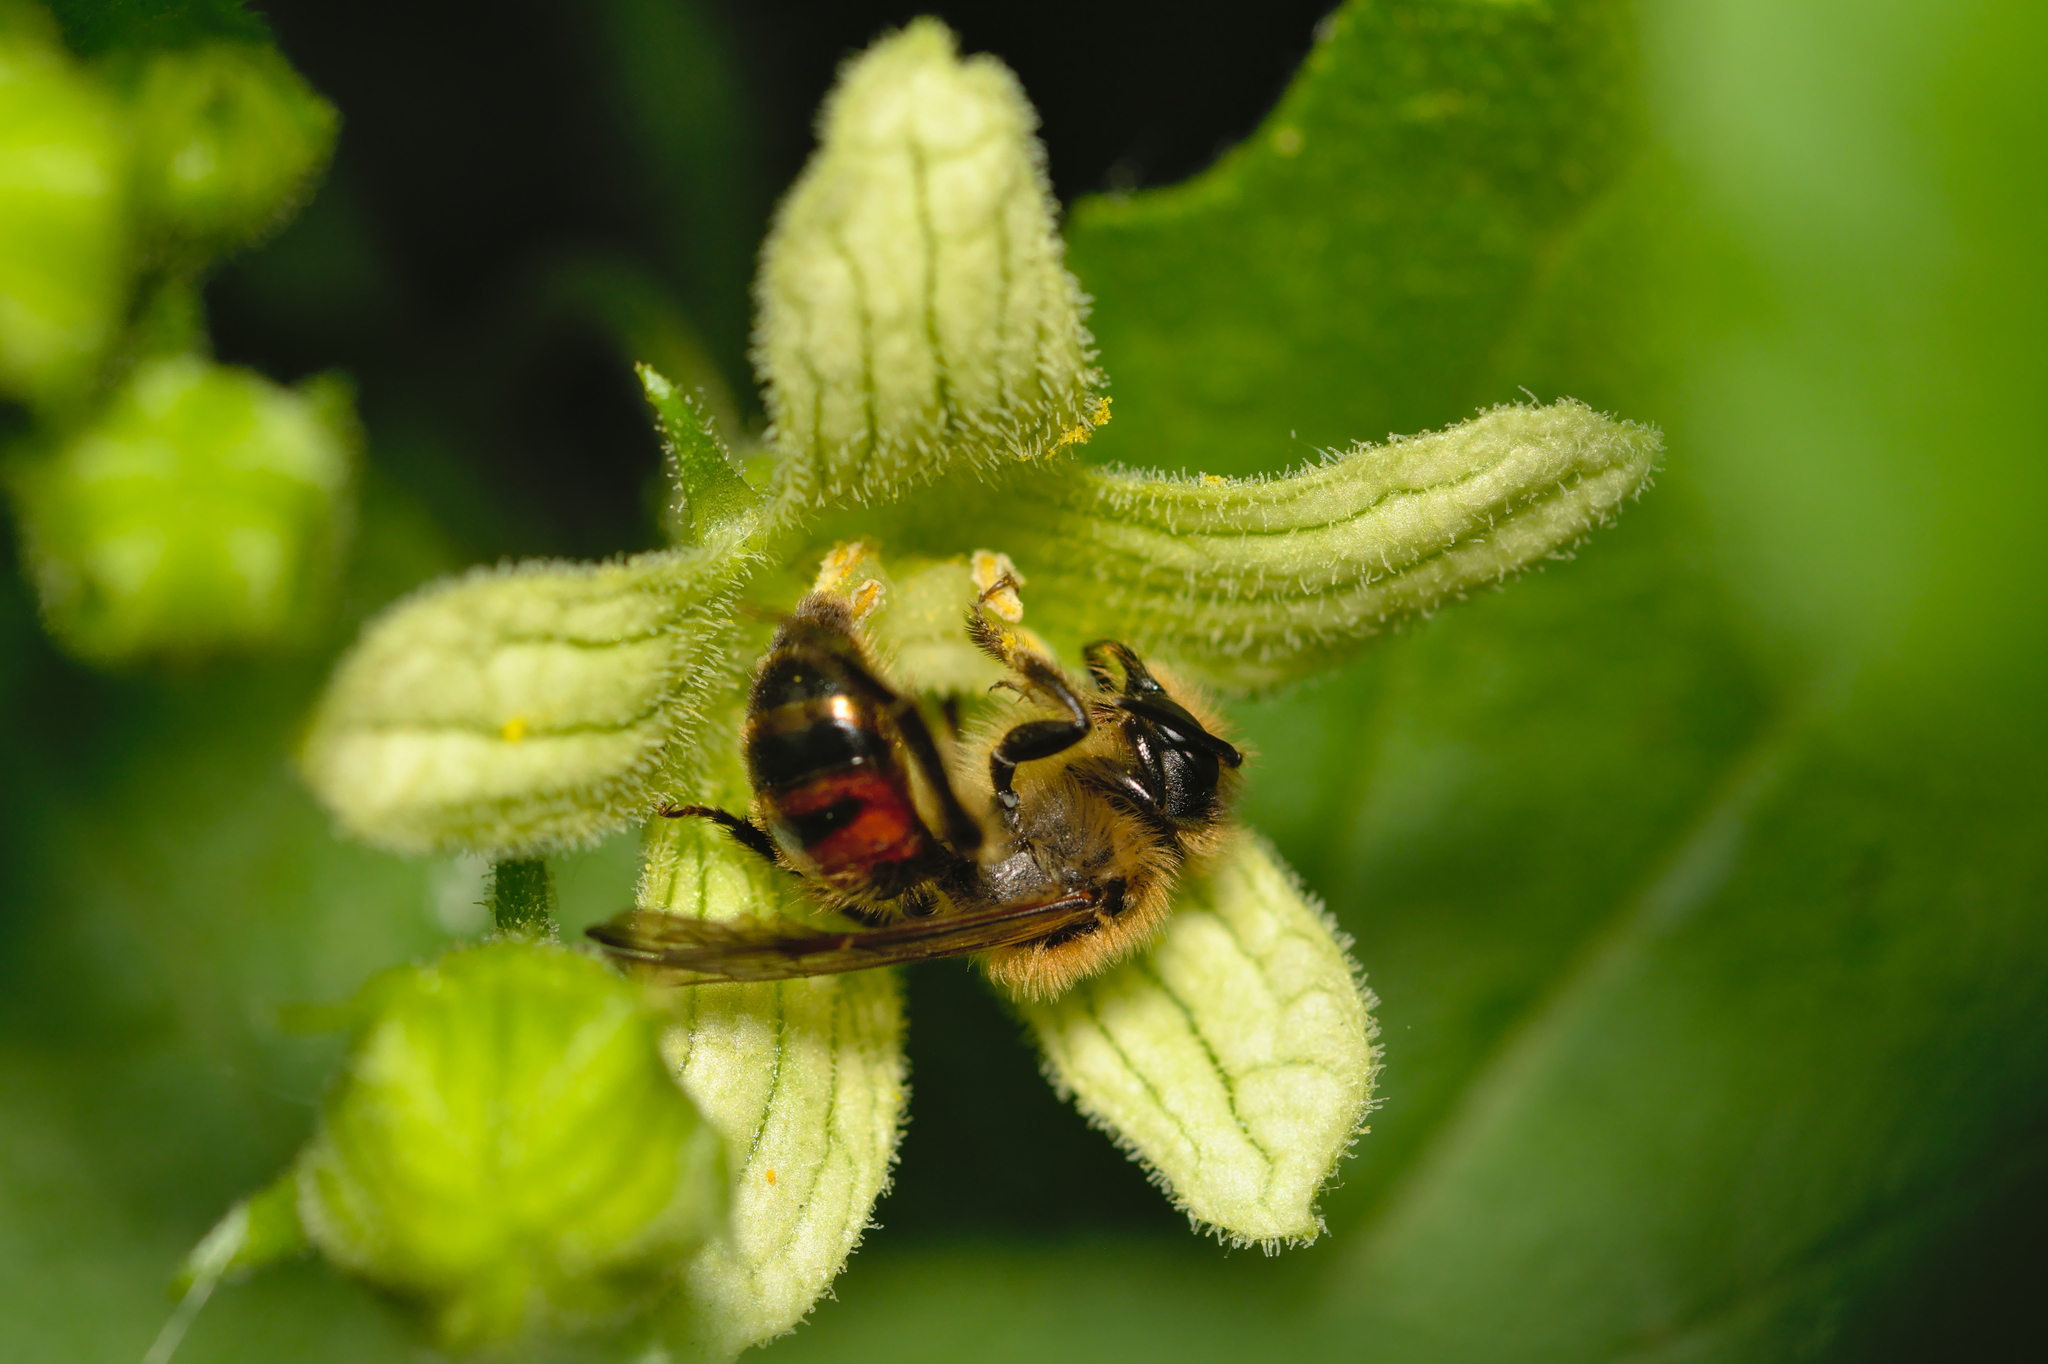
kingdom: Animalia
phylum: Arthropoda
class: Insecta
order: Hymenoptera
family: Andrenidae
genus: Andrena
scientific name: Andrena florea
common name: Bryony mining bee
